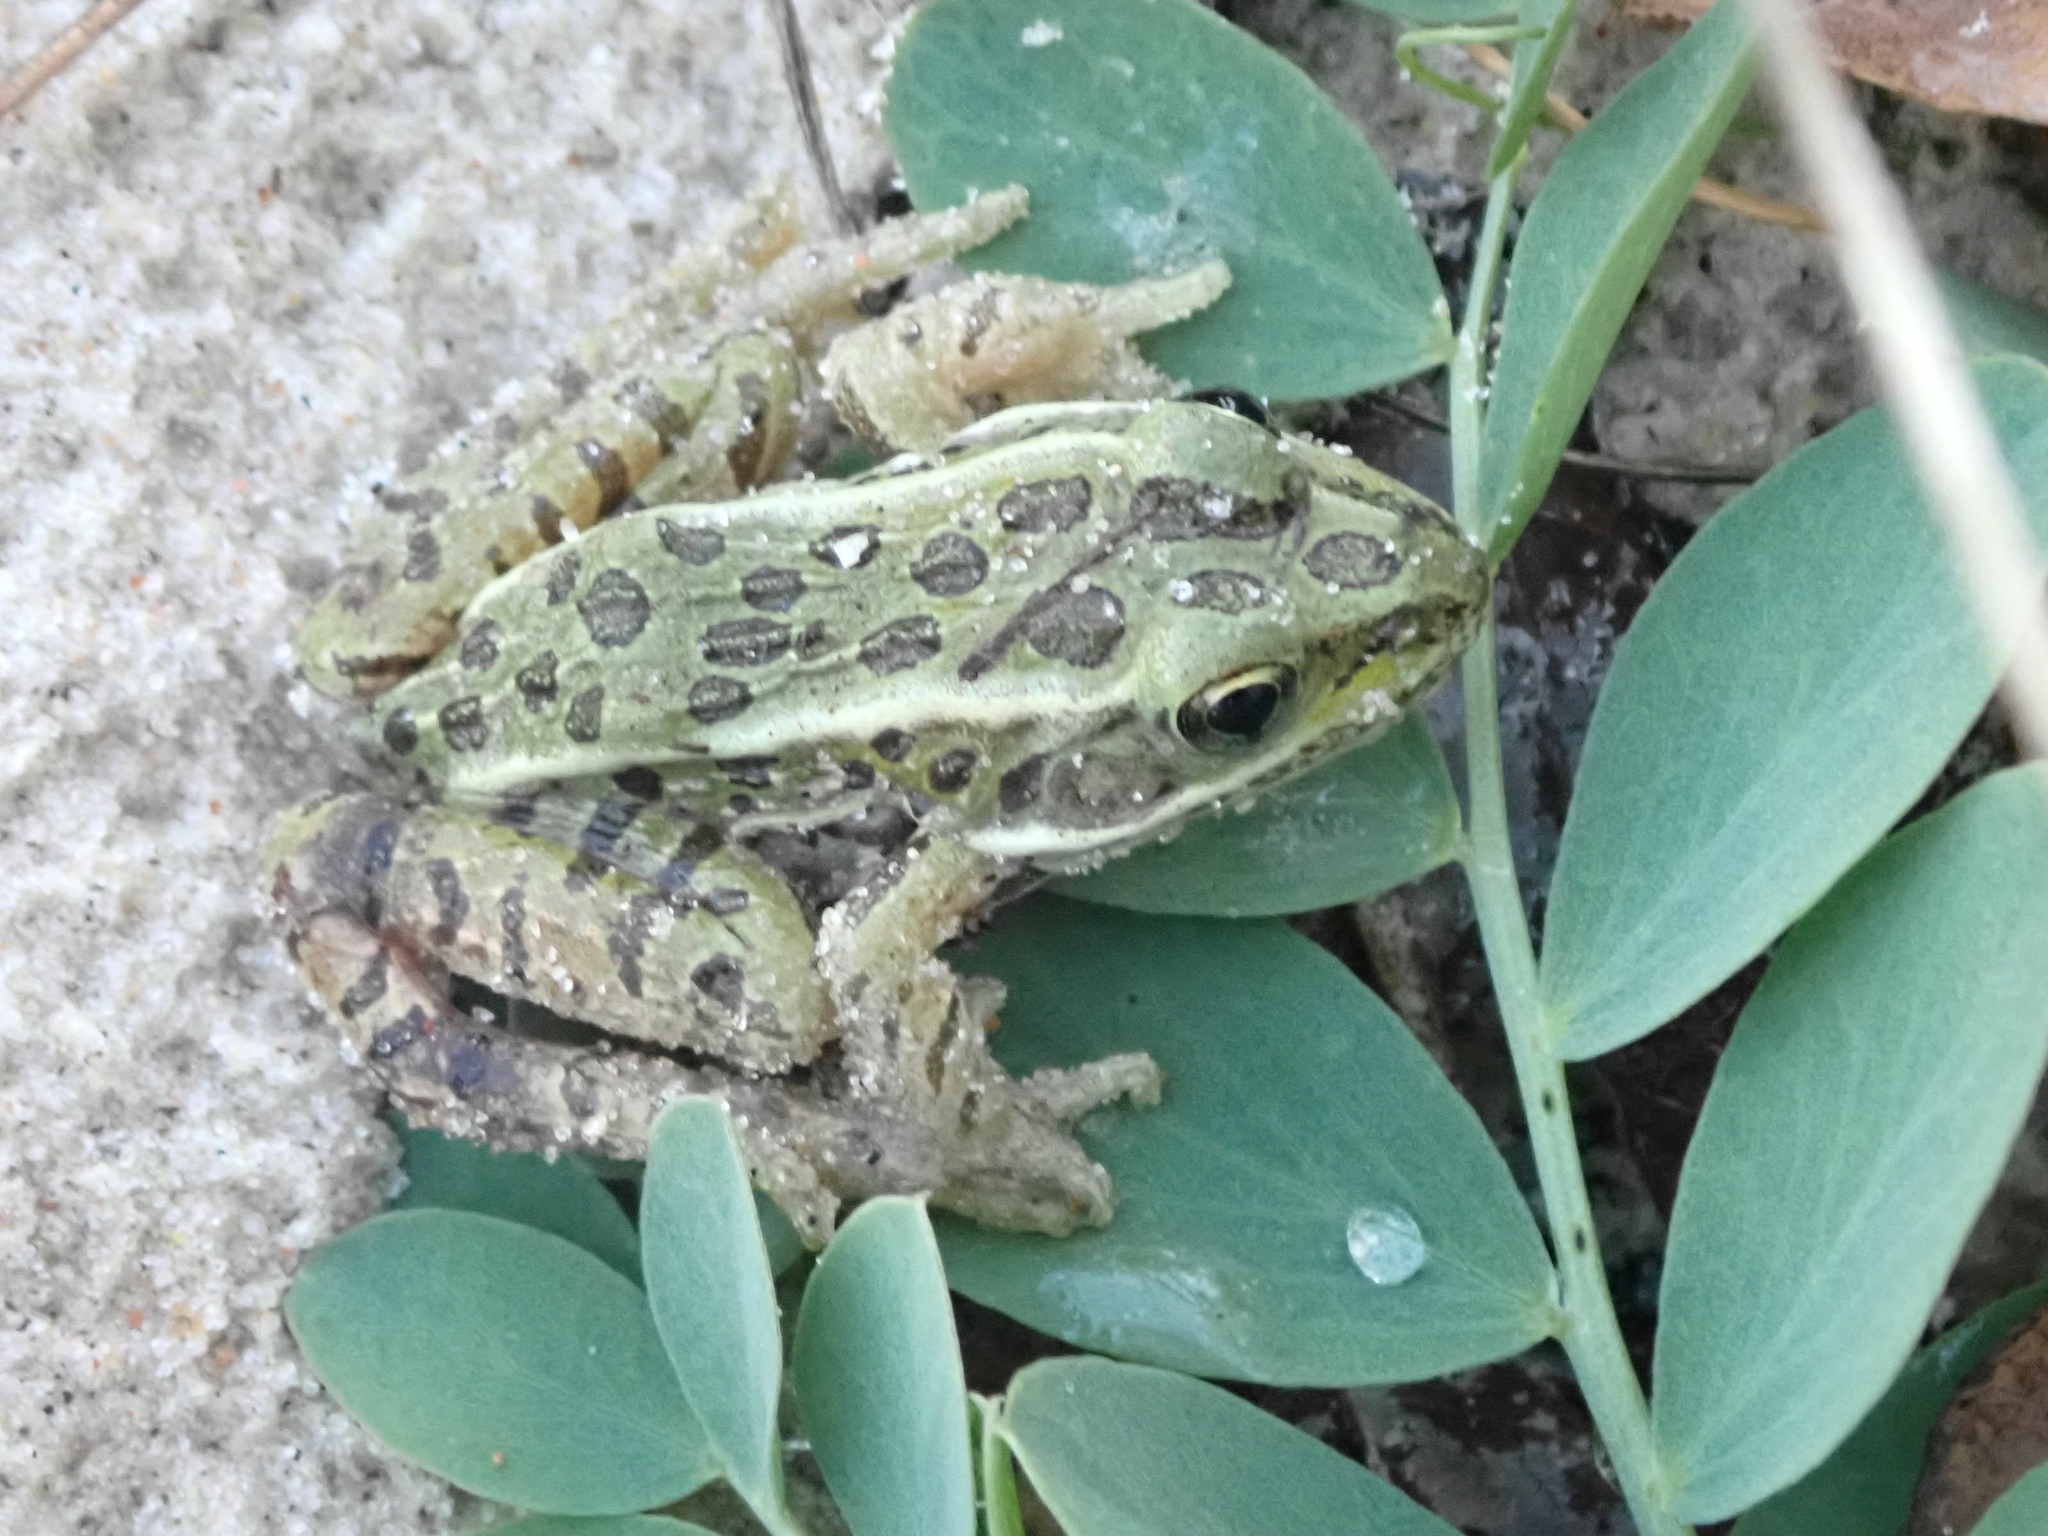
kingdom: Animalia
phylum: Chordata
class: Amphibia
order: Anura
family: Ranidae
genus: Lithobates
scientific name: Lithobates pipiens
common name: Northern leopard frog
